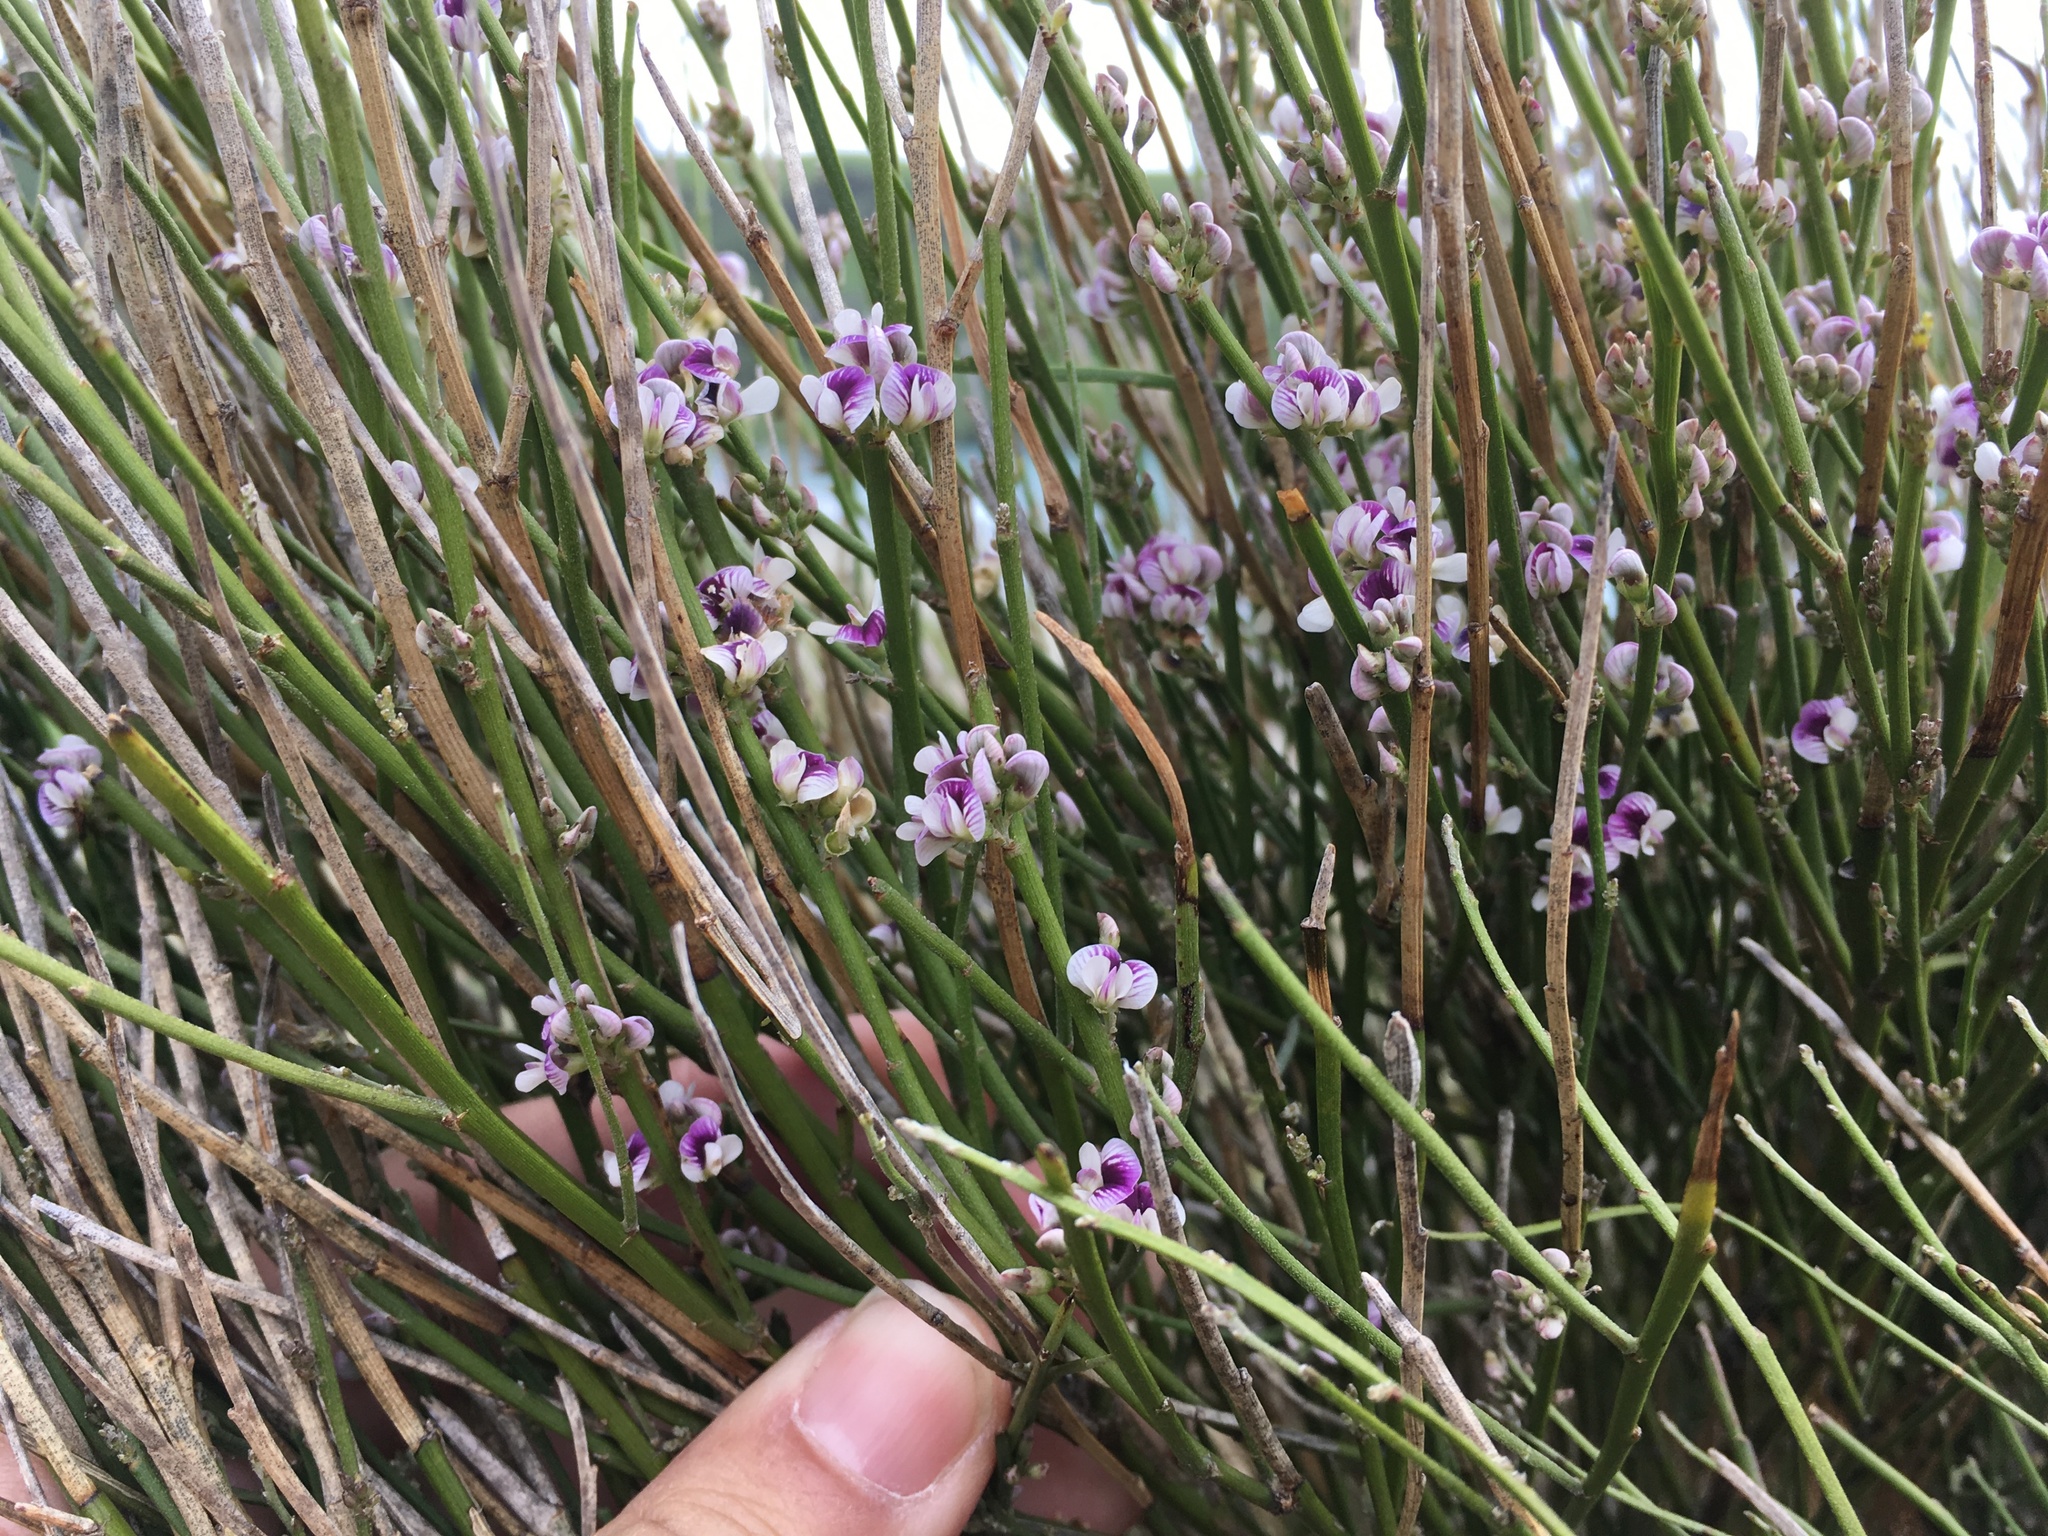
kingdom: Plantae
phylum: Tracheophyta
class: Magnoliopsida
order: Fabales
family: Fabaceae
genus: Carmichaelia
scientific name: Carmichaelia australis
